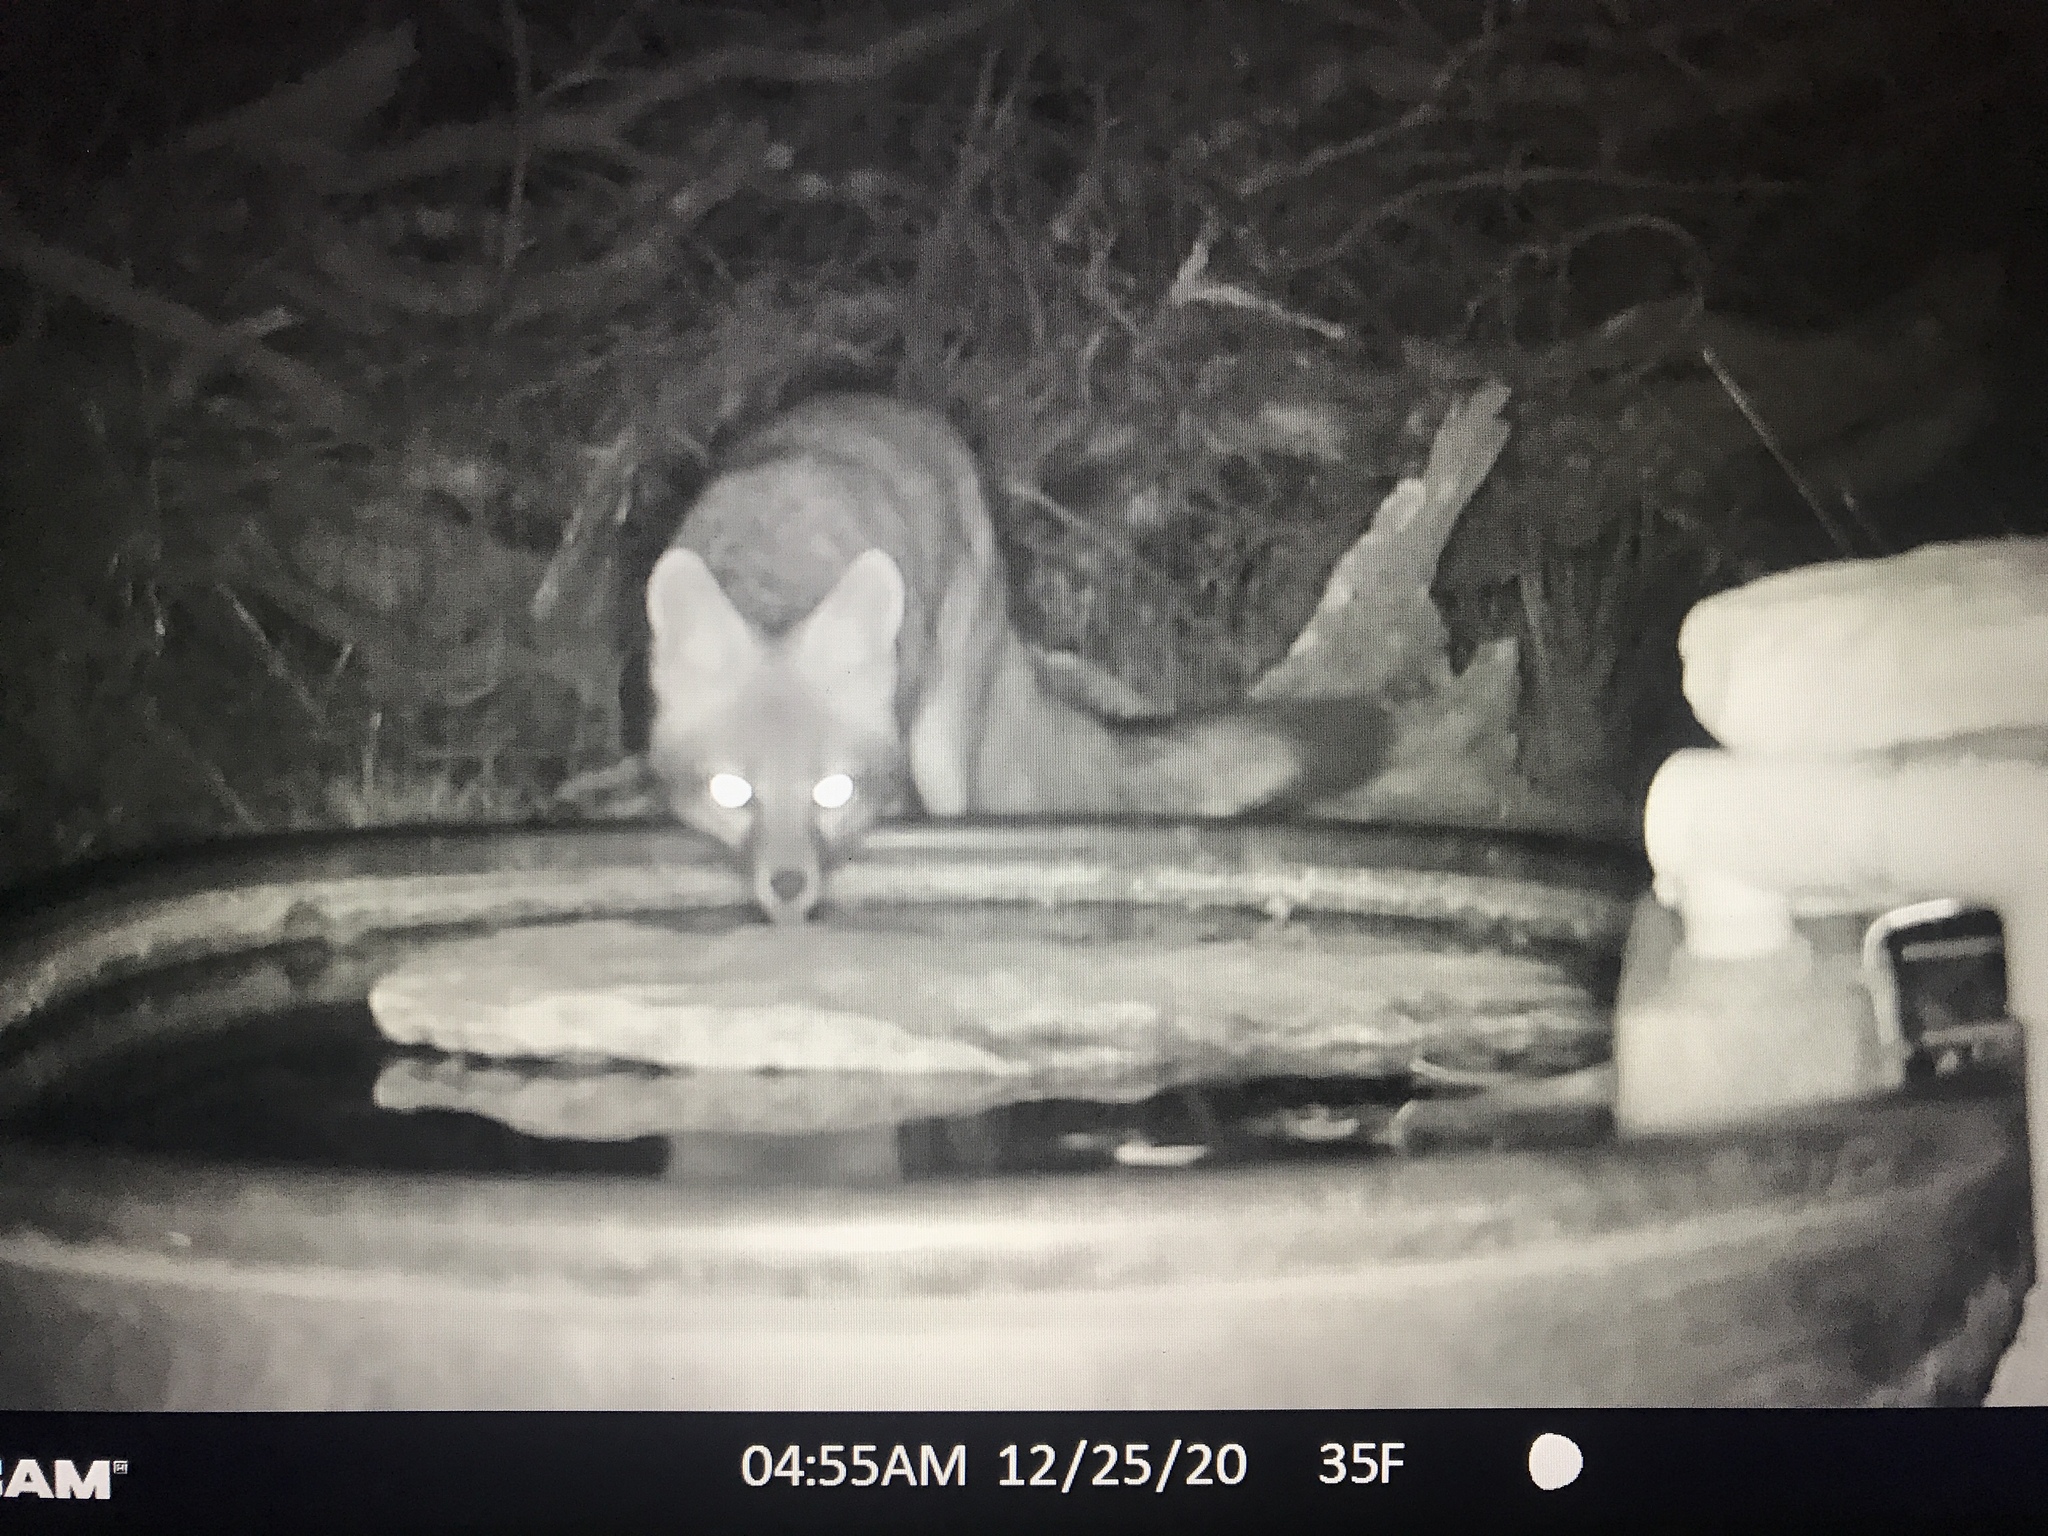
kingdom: Animalia
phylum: Chordata
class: Mammalia
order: Carnivora
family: Canidae
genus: Urocyon
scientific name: Urocyon cinereoargenteus
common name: Gray fox
